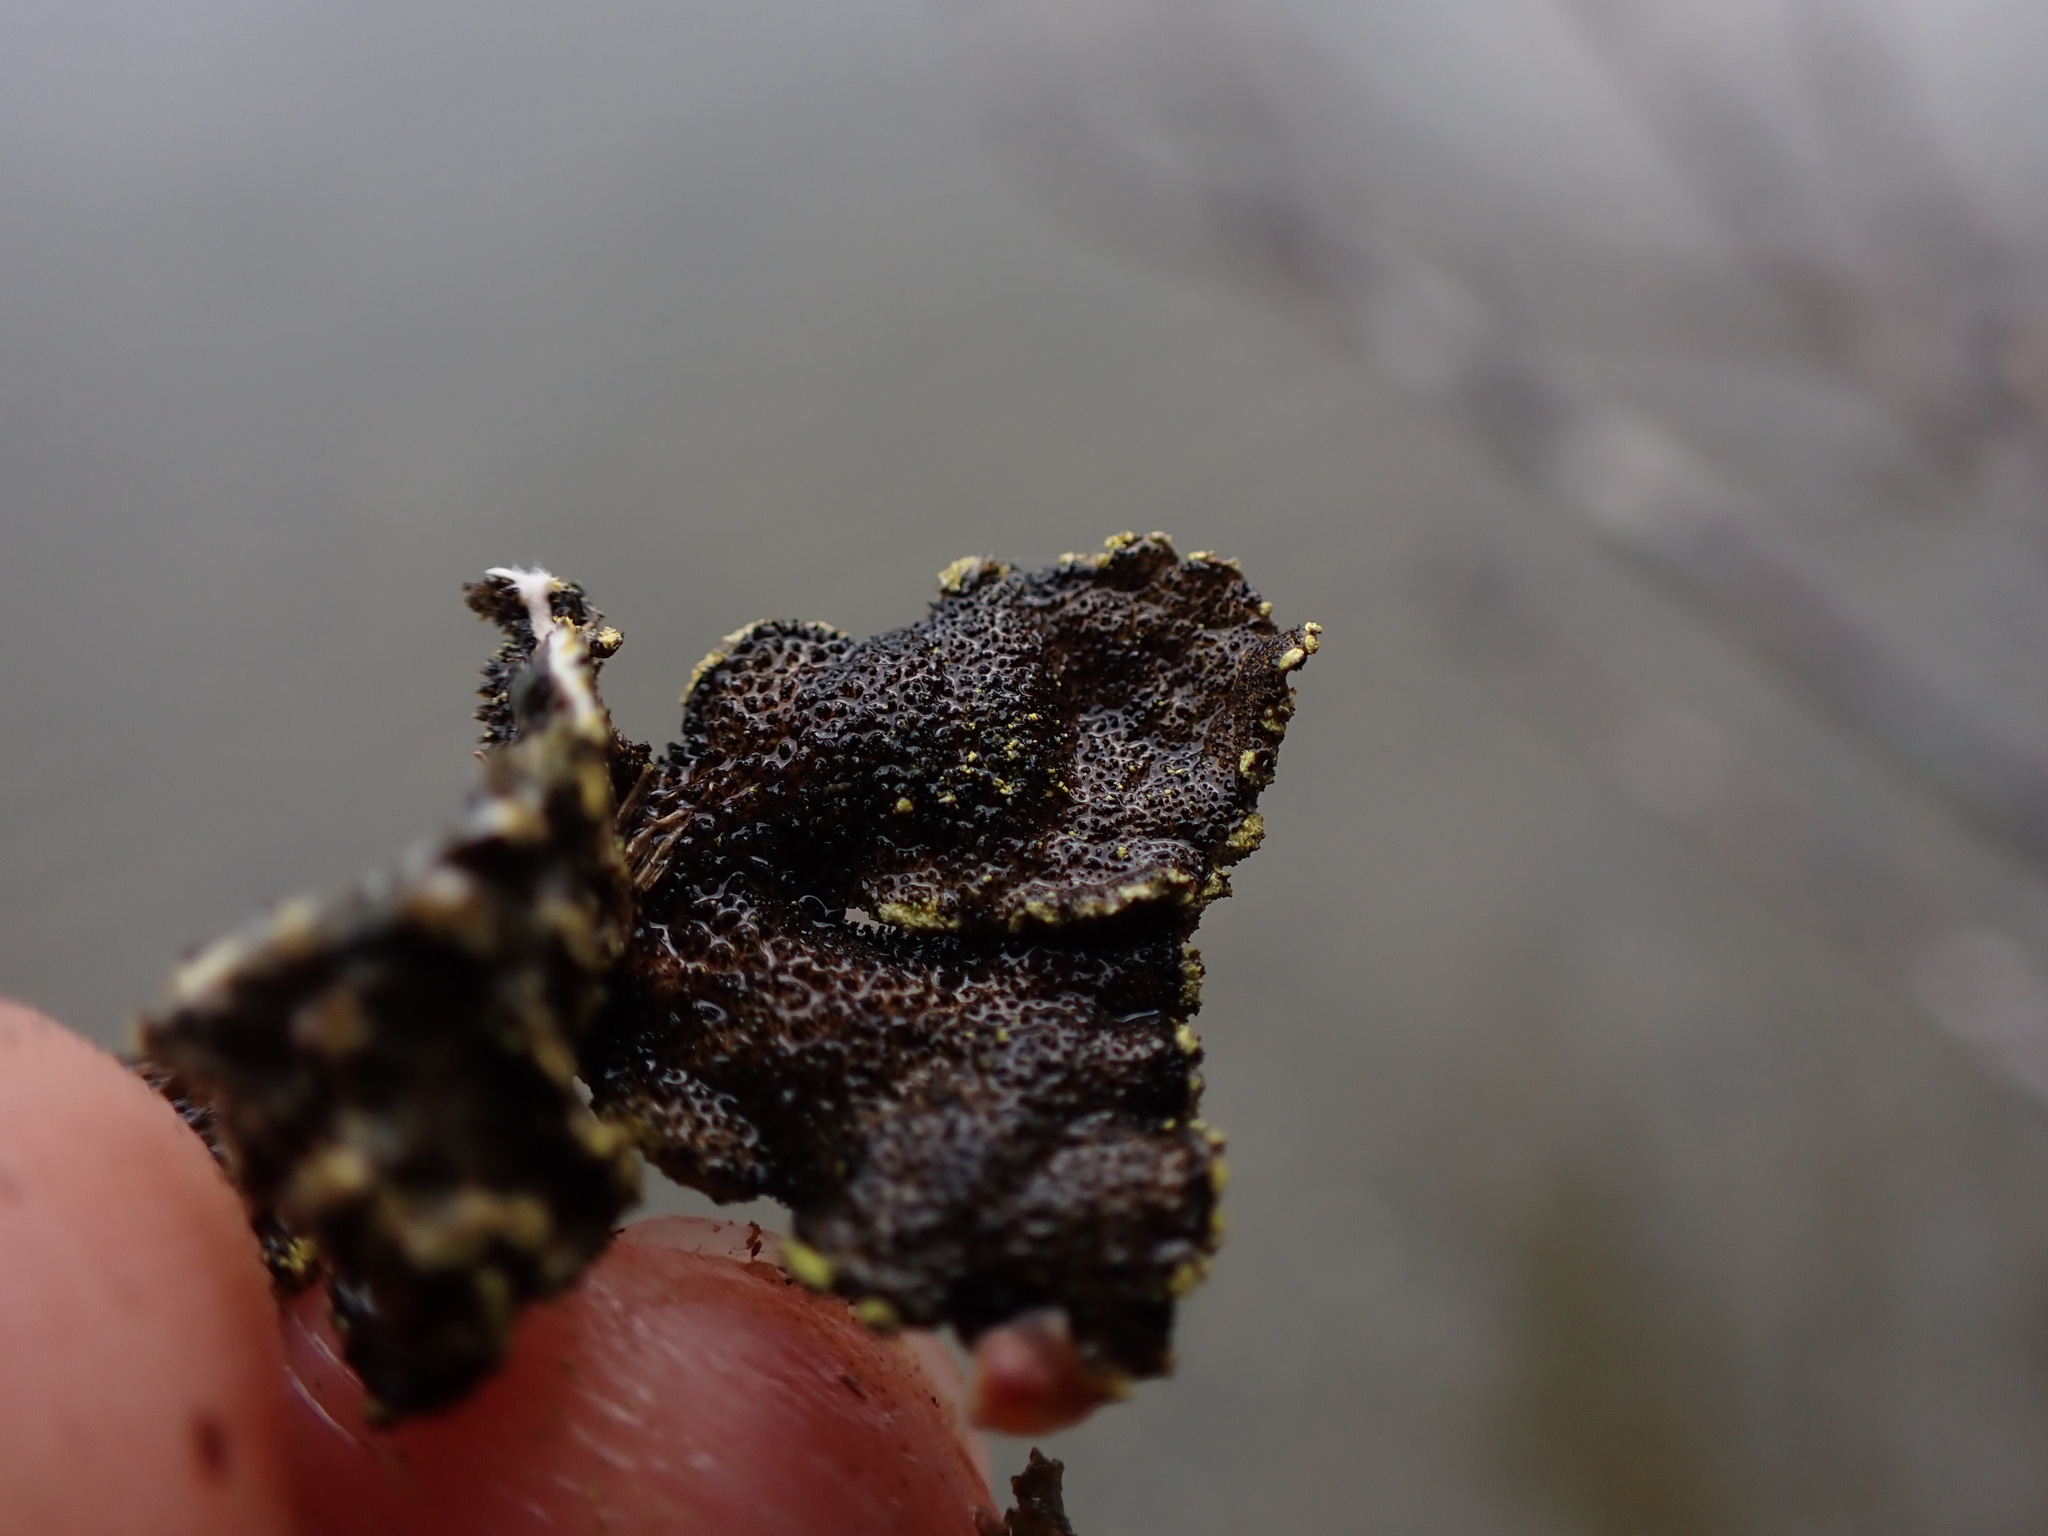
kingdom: Fungi
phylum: Ascomycota
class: Lecanoromycetes
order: Peltigerales
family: Lobariaceae
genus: Pseudocyphellaria
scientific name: Pseudocyphellaria citrina
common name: Golden specklebelly
